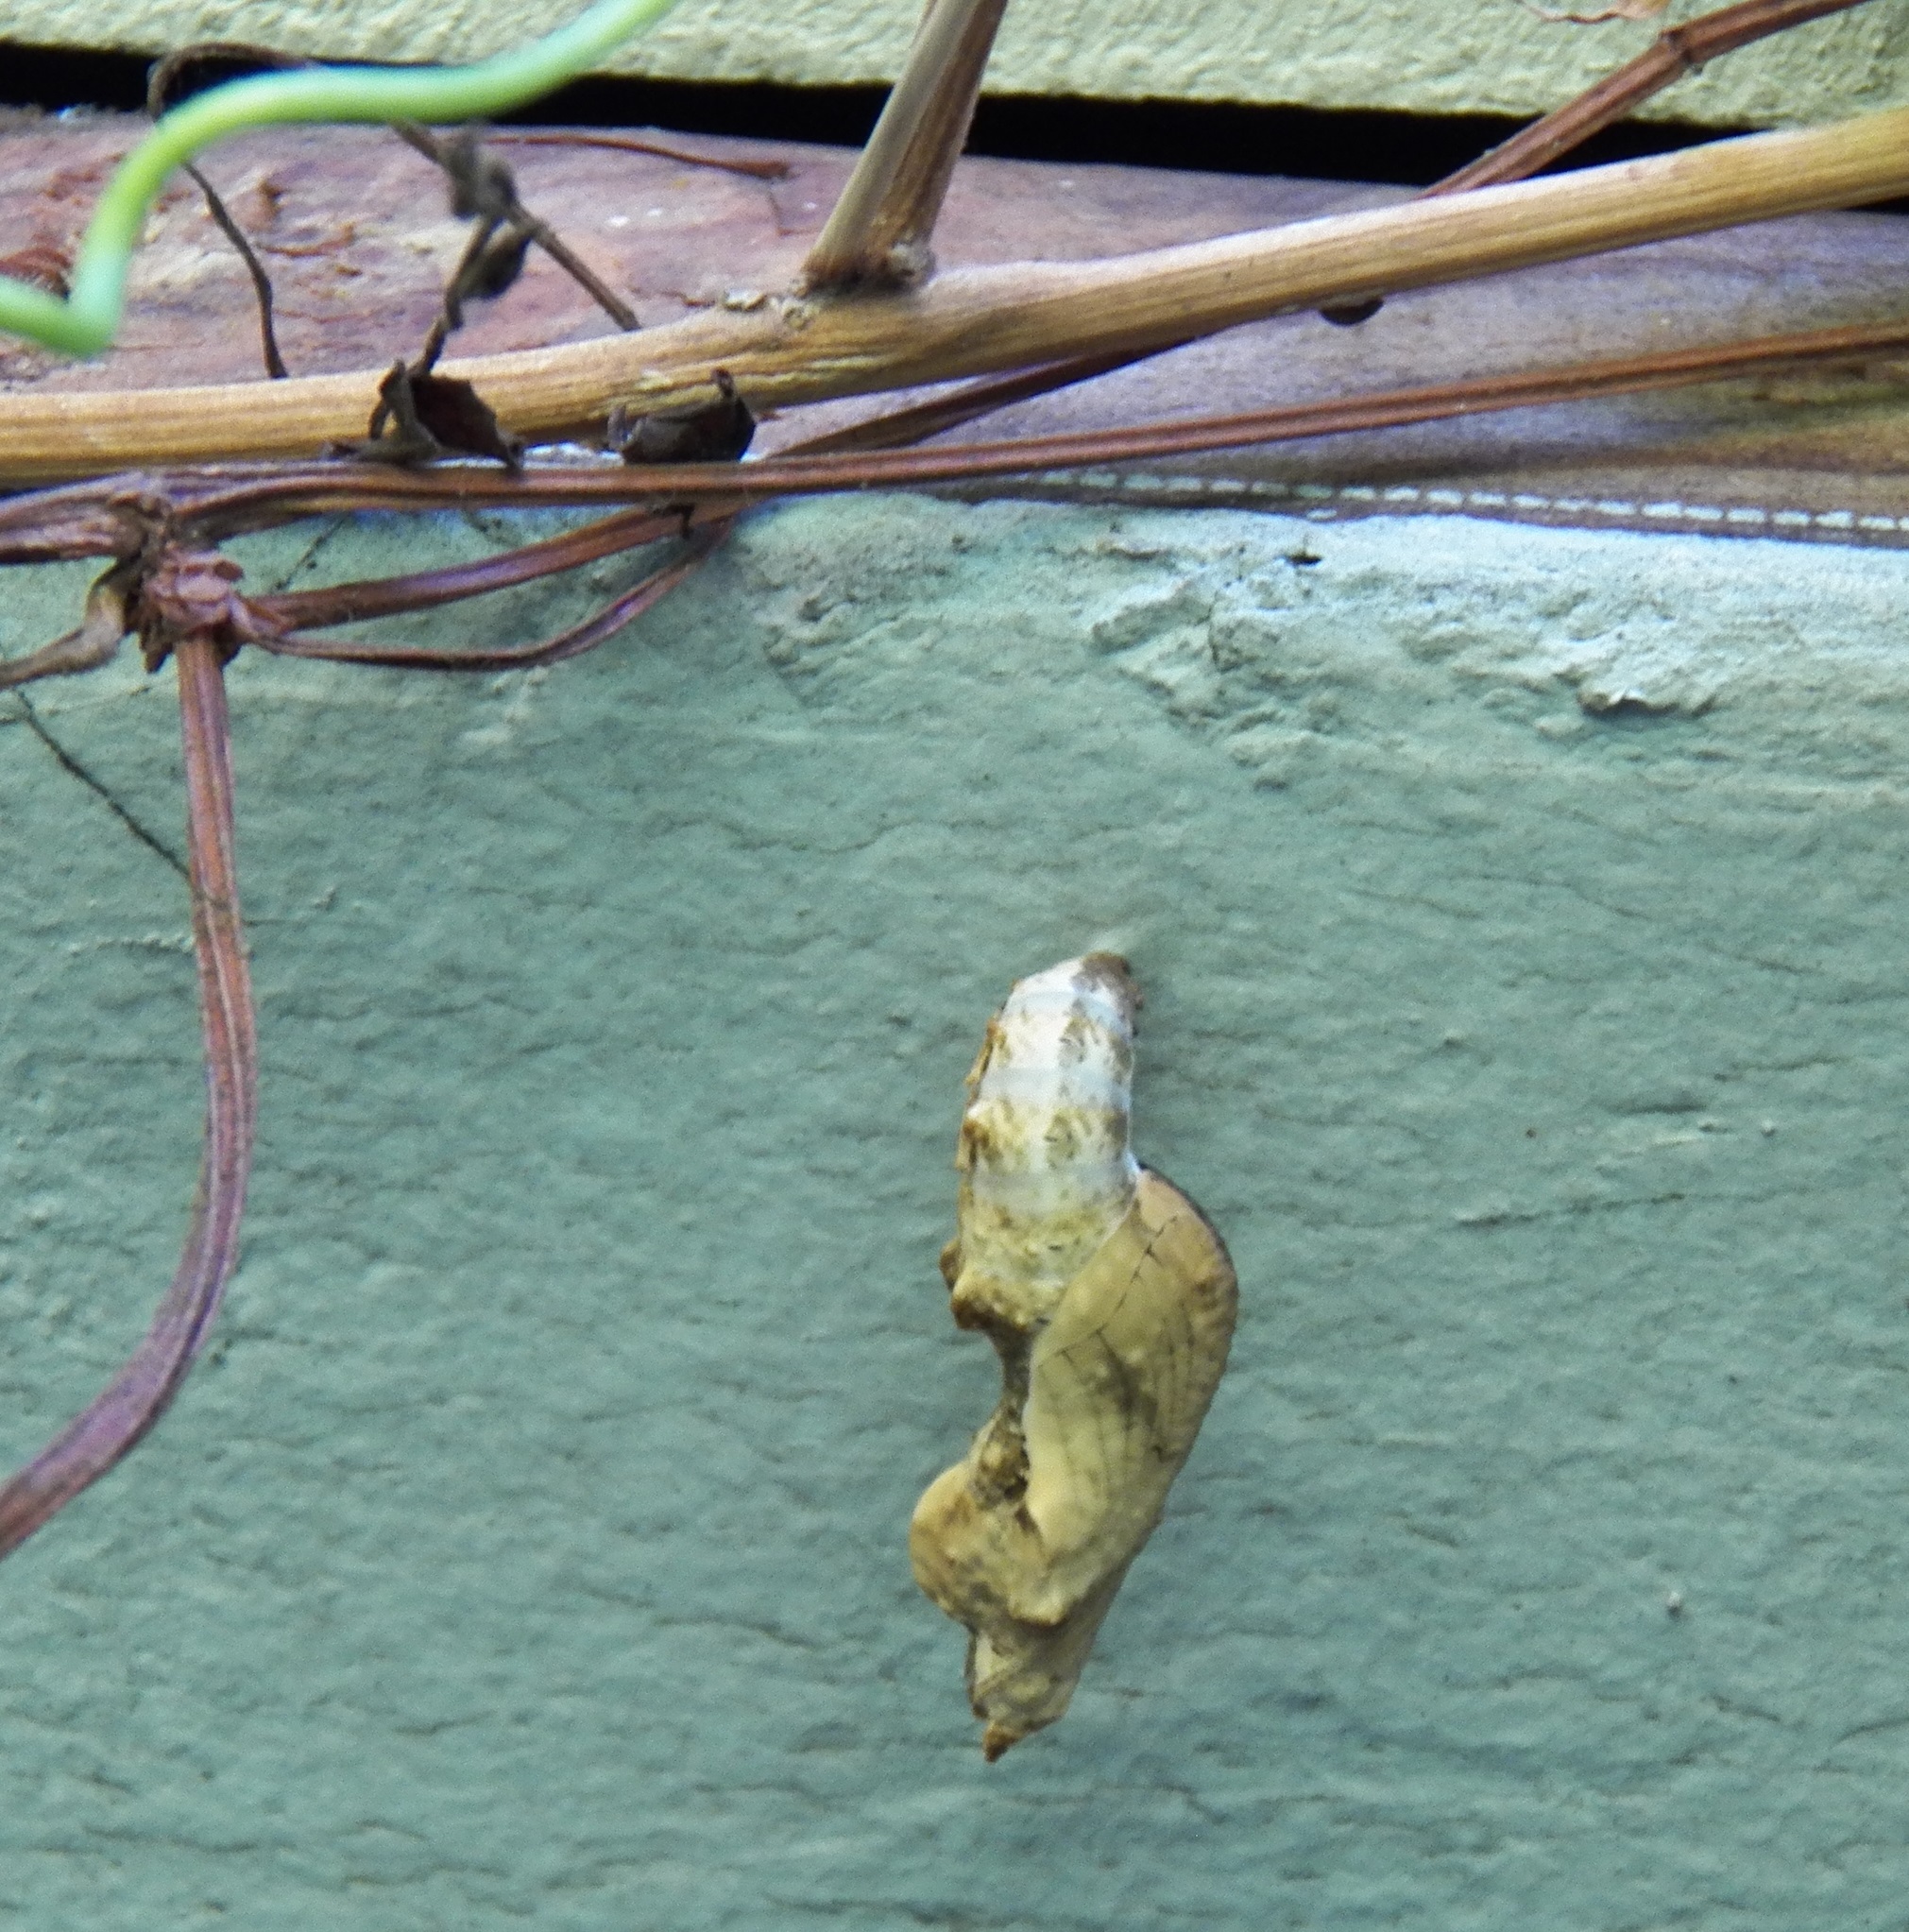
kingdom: Animalia
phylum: Arthropoda
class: Insecta
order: Lepidoptera
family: Nymphalidae
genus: Dione
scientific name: Dione vanillae
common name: Gulf fritillary
